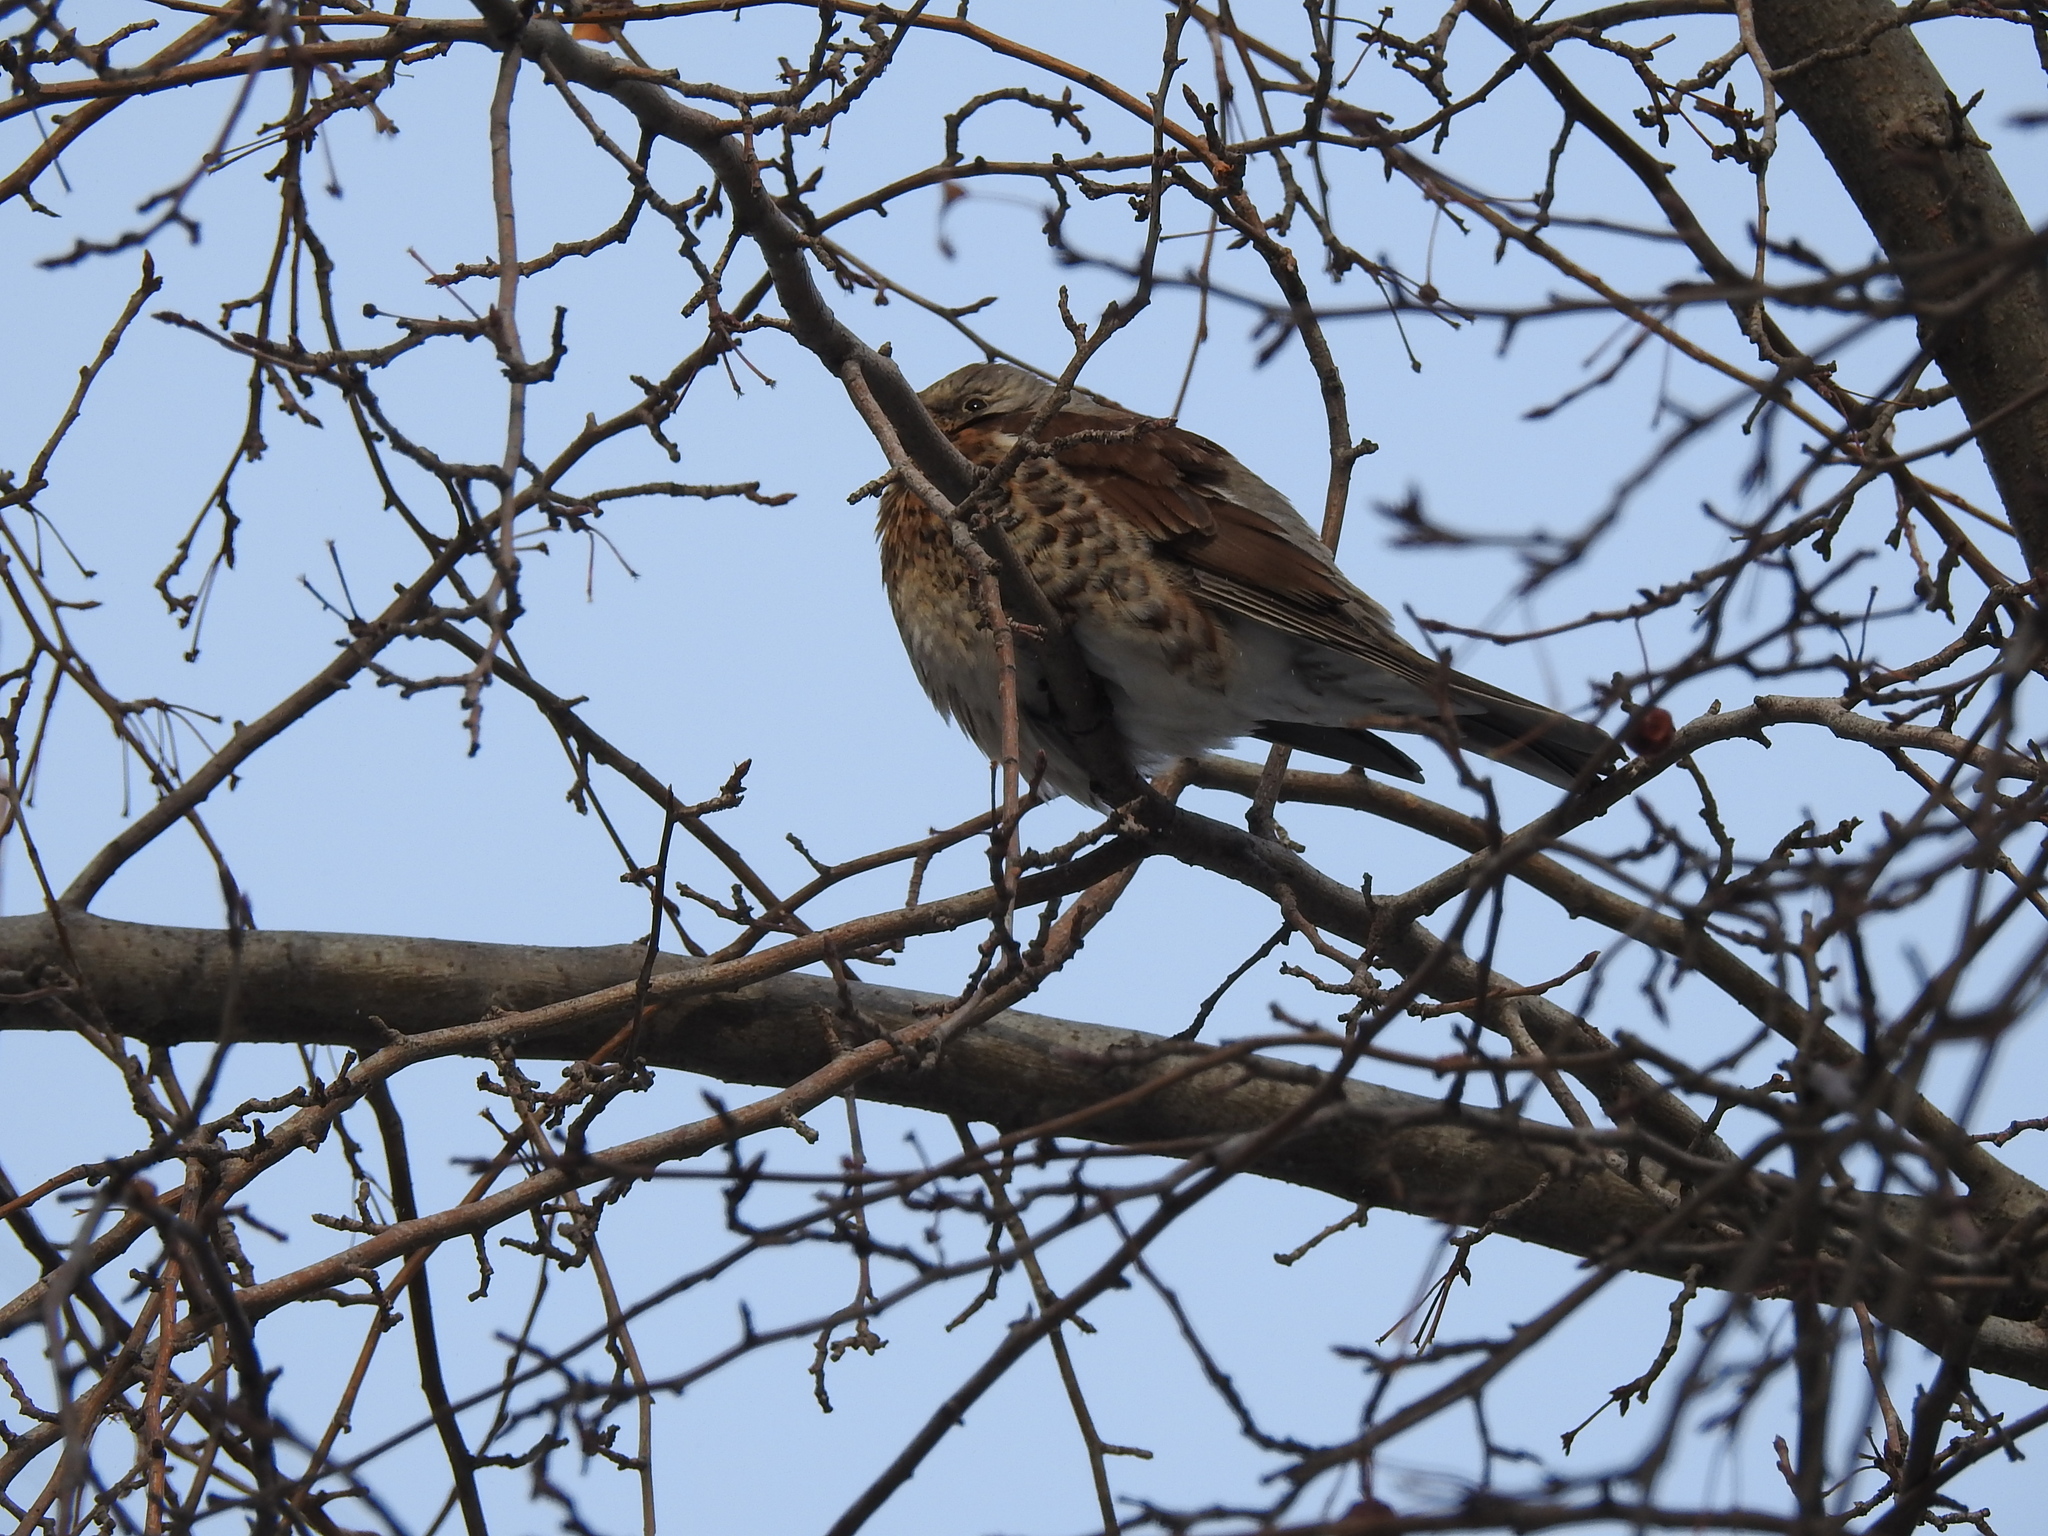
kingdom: Animalia
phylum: Chordata
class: Aves
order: Passeriformes
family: Turdidae
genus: Turdus
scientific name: Turdus pilaris
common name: Fieldfare
